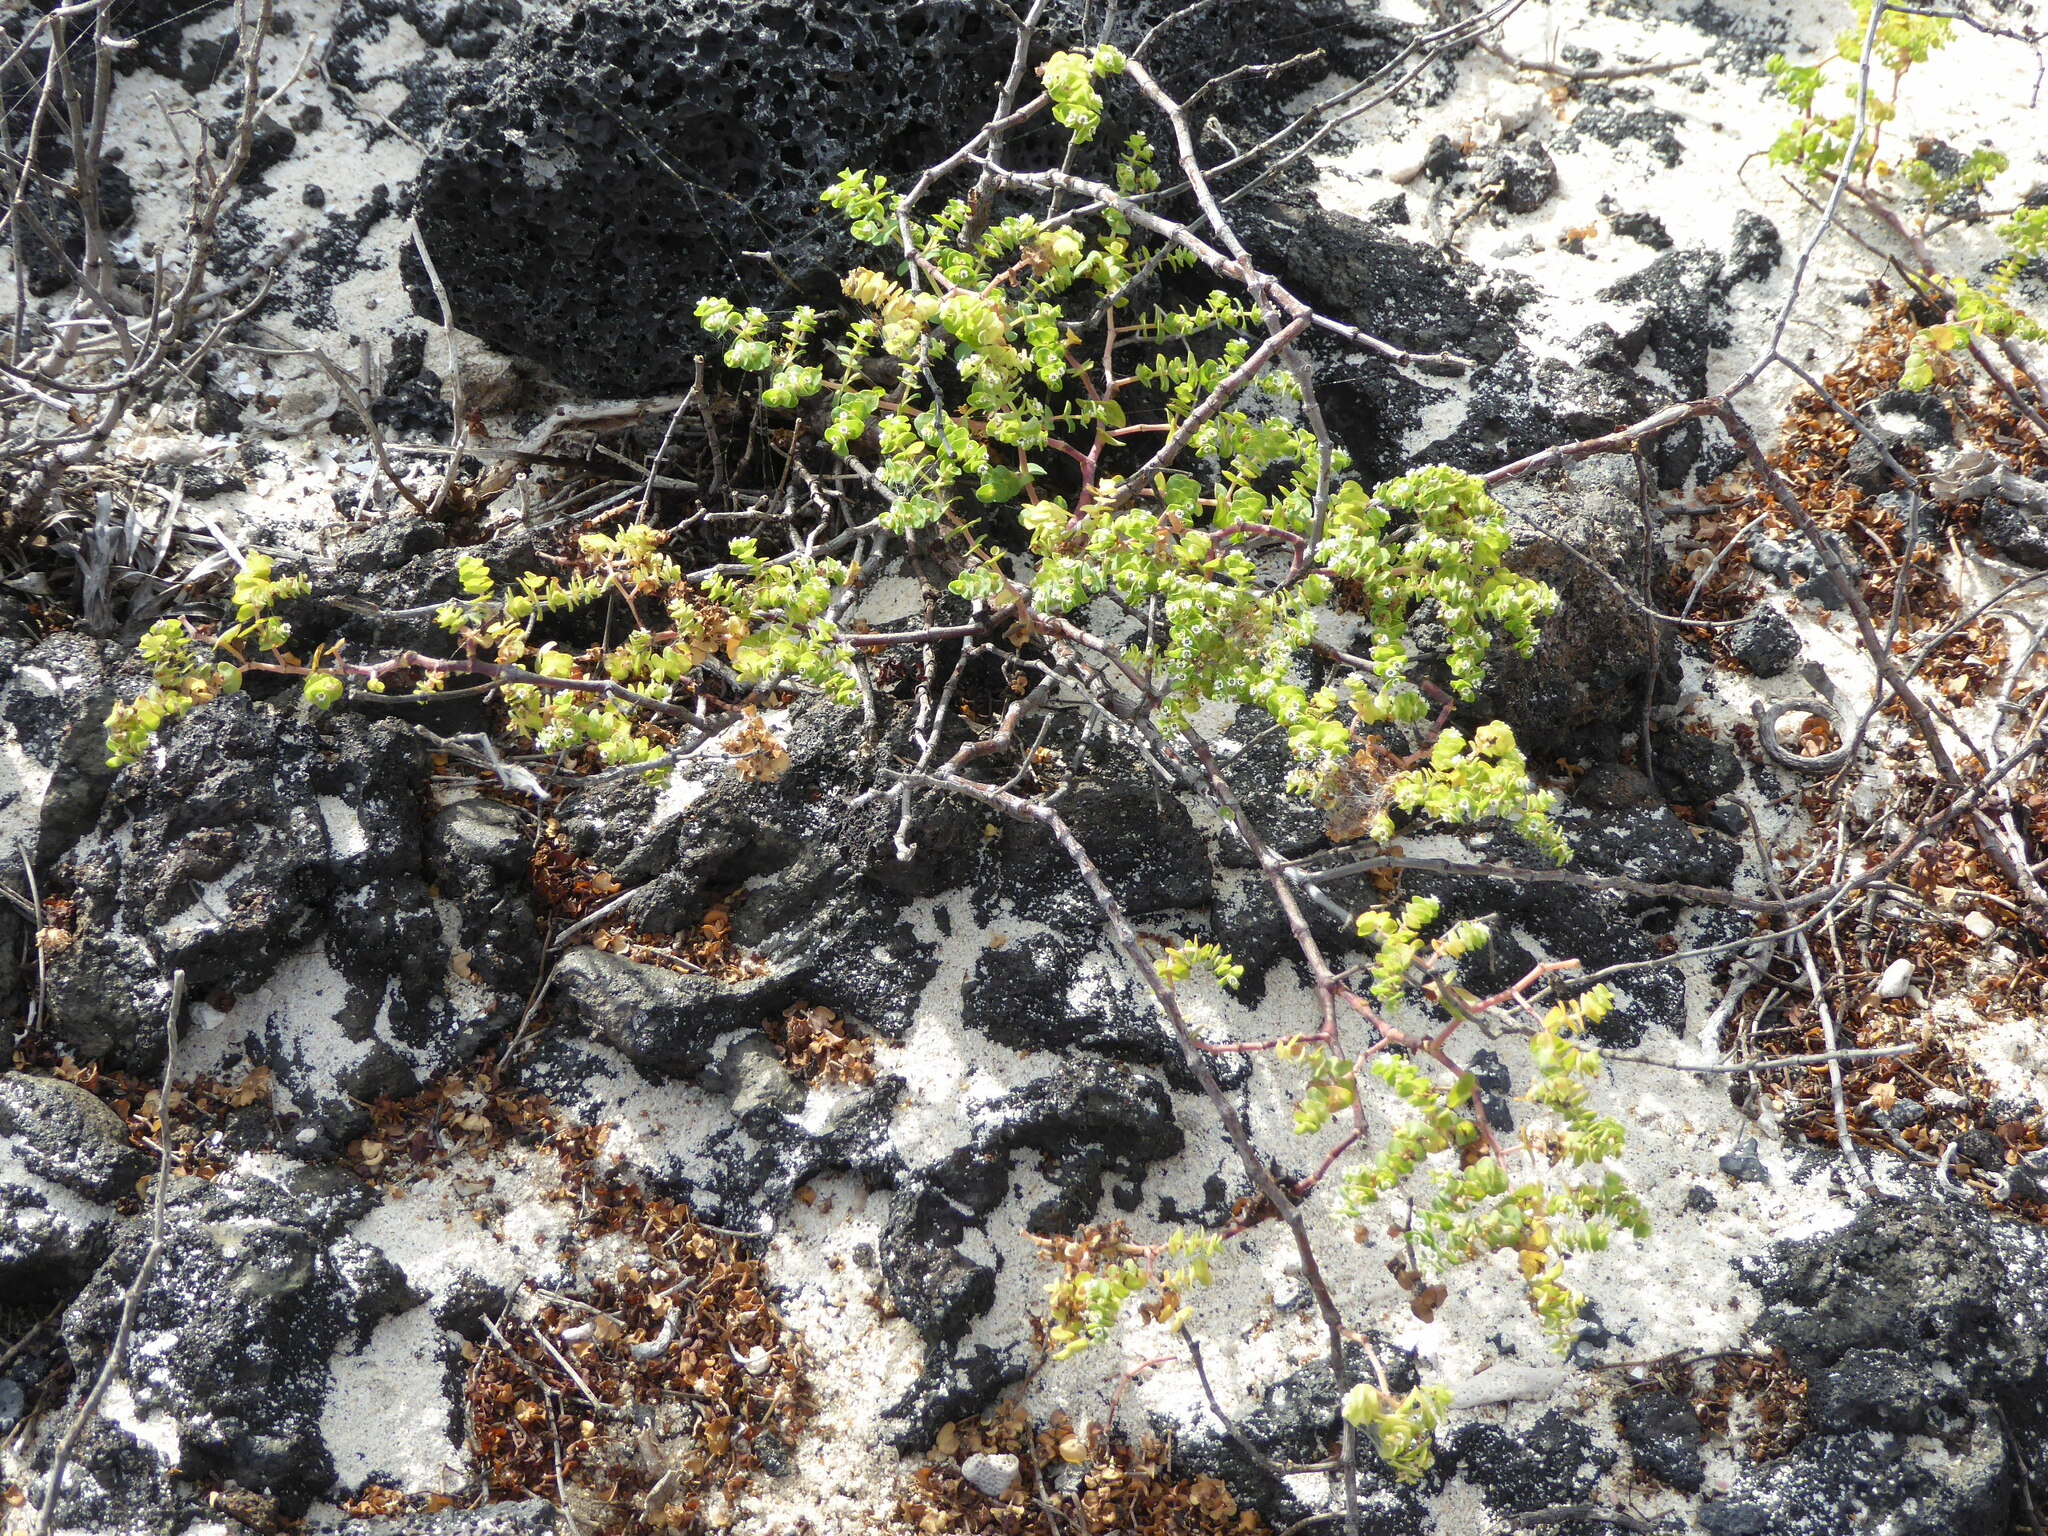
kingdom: Plantae
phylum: Tracheophyta
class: Magnoliopsida
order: Malpighiales
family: Euphorbiaceae
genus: Euphorbia
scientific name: Euphorbia amplexicaulis
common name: Chamaesyce
